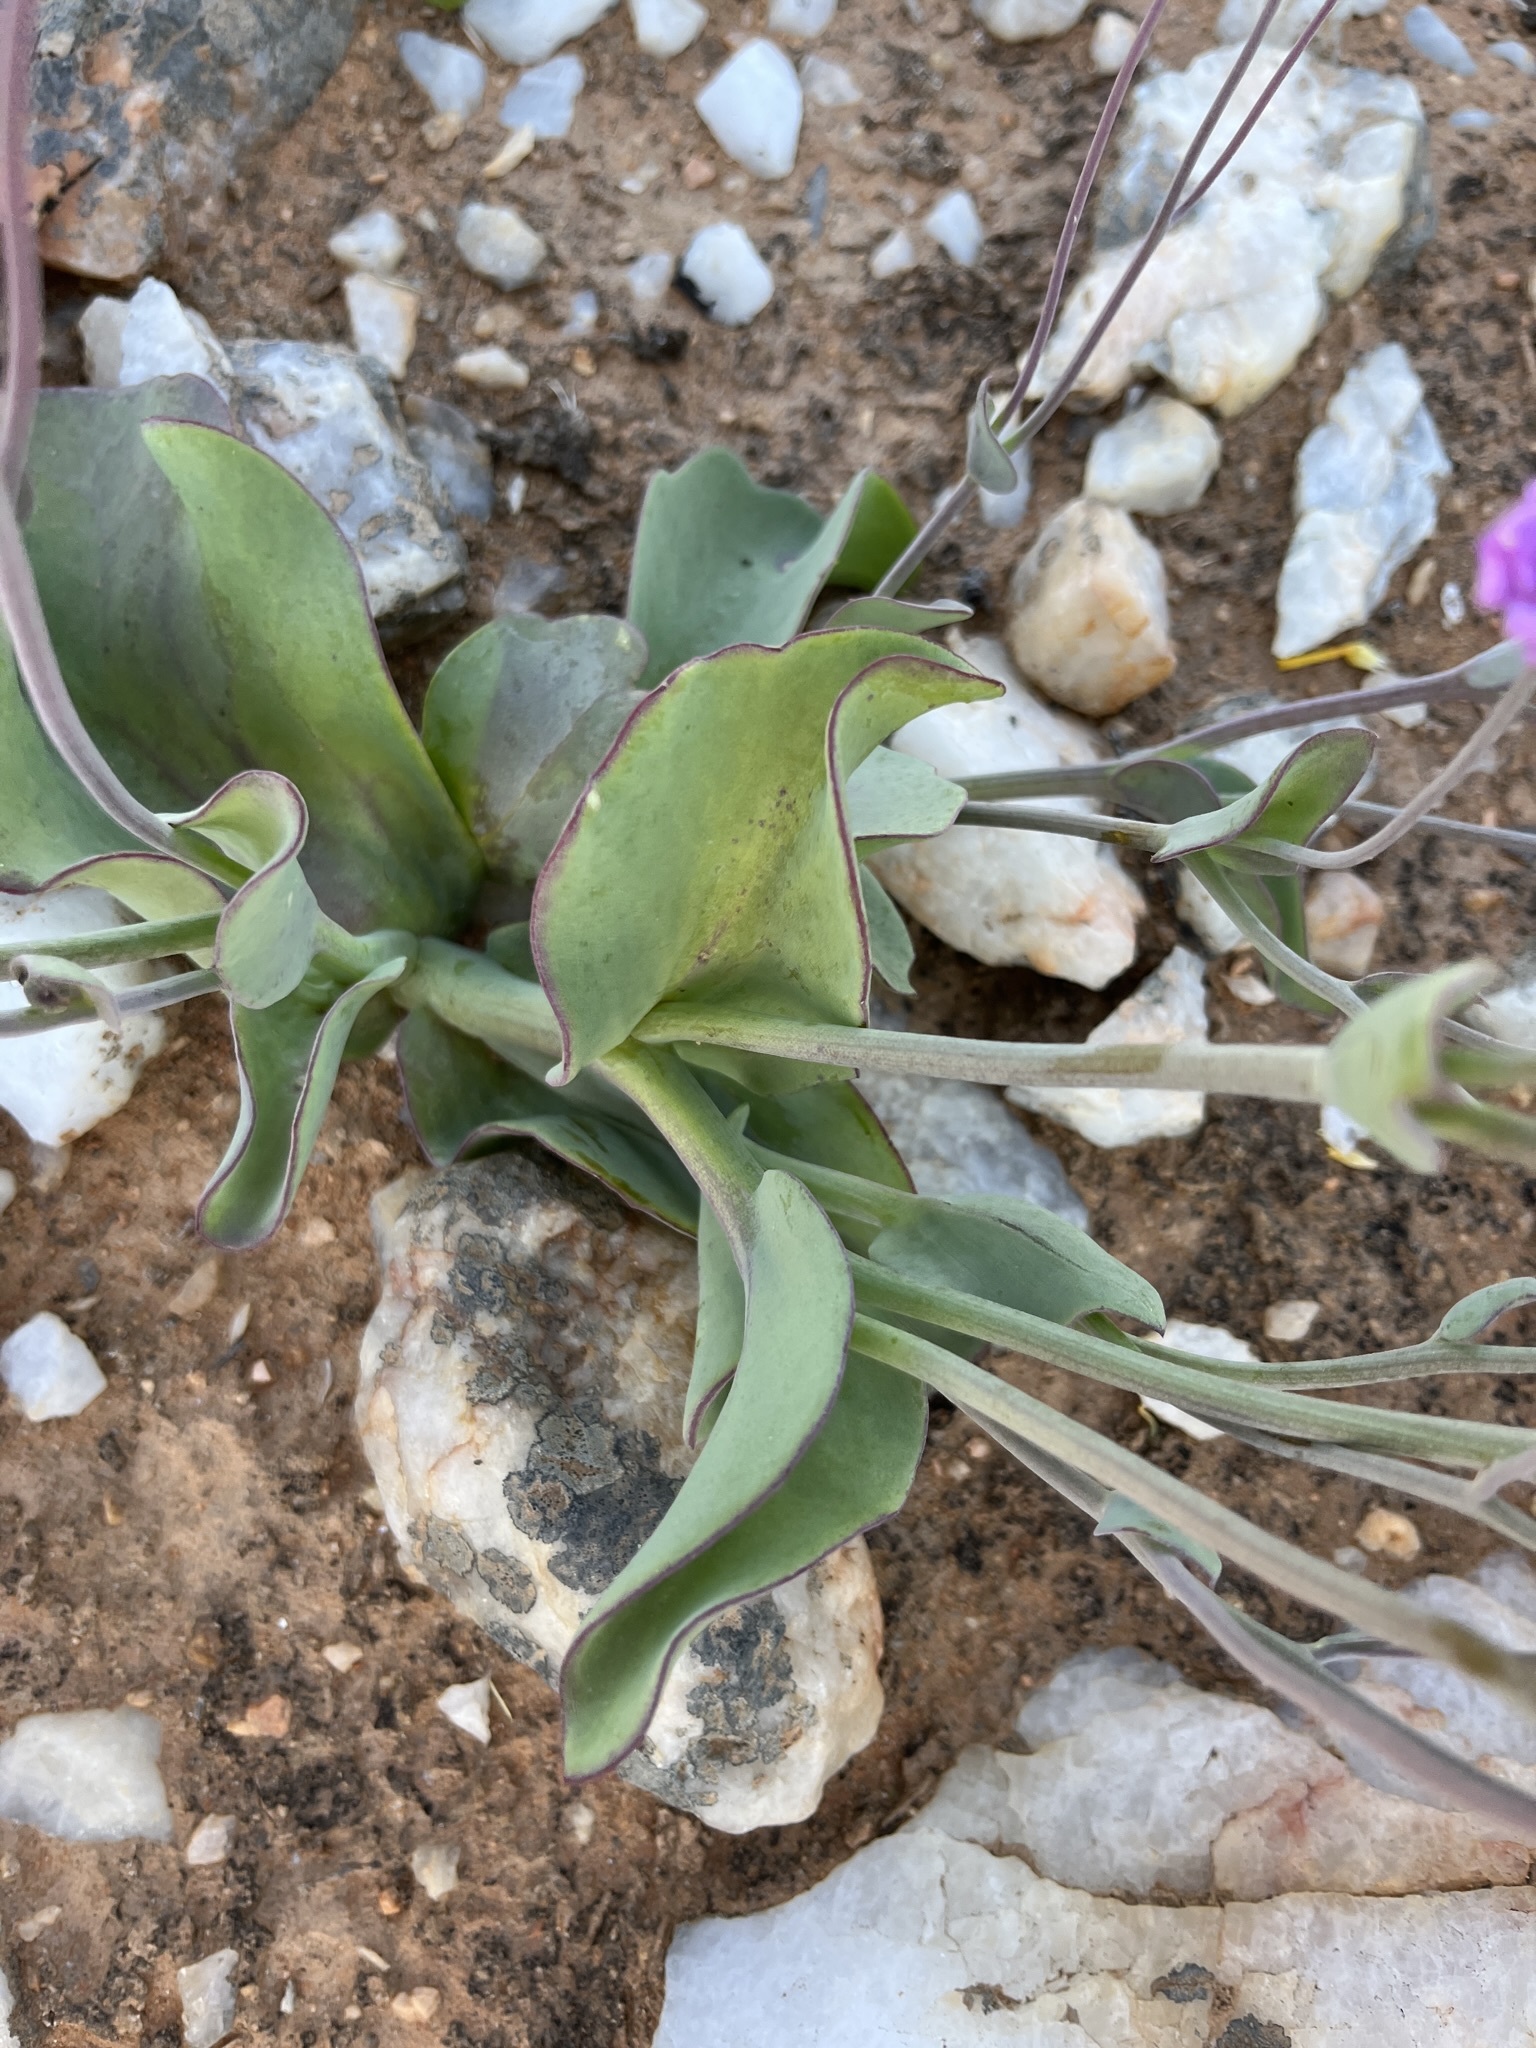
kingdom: Plantae
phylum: Tracheophyta
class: Magnoliopsida
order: Asterales
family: Asteraceae
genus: Othonna
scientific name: Othonna lilacina
